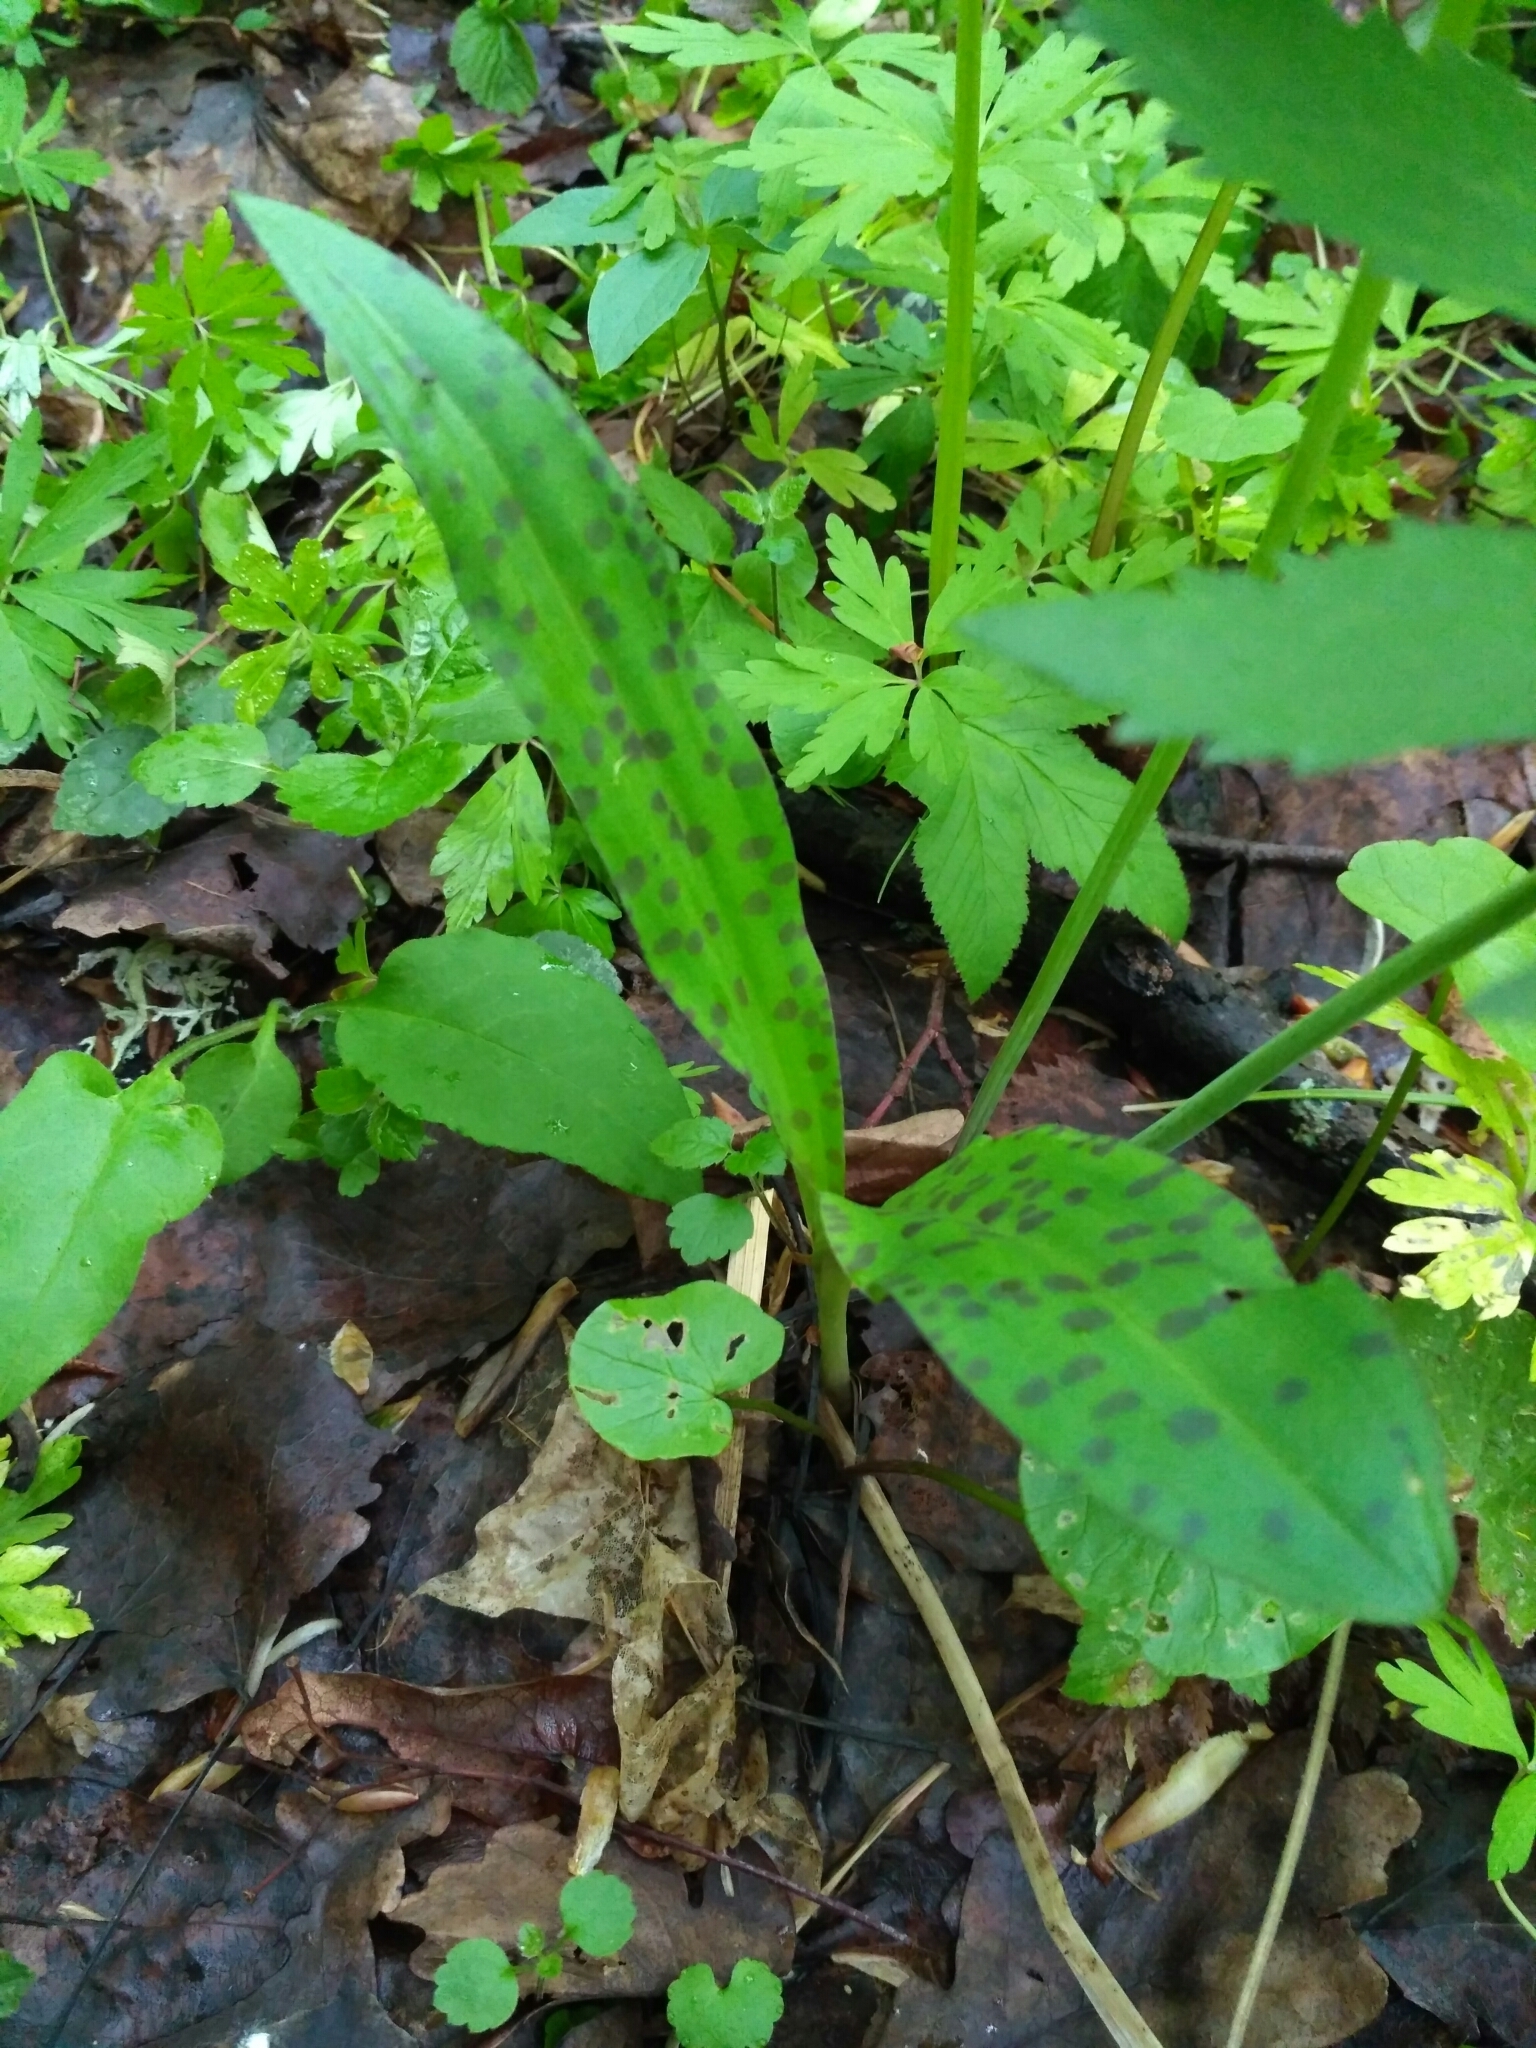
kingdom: Plantae
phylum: Tracheophyta
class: Liliopsida
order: Asparagales
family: Orchidaceae
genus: Dactylorhiza
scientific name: Dactylorhiza maculata
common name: Heath spotted-orchid
